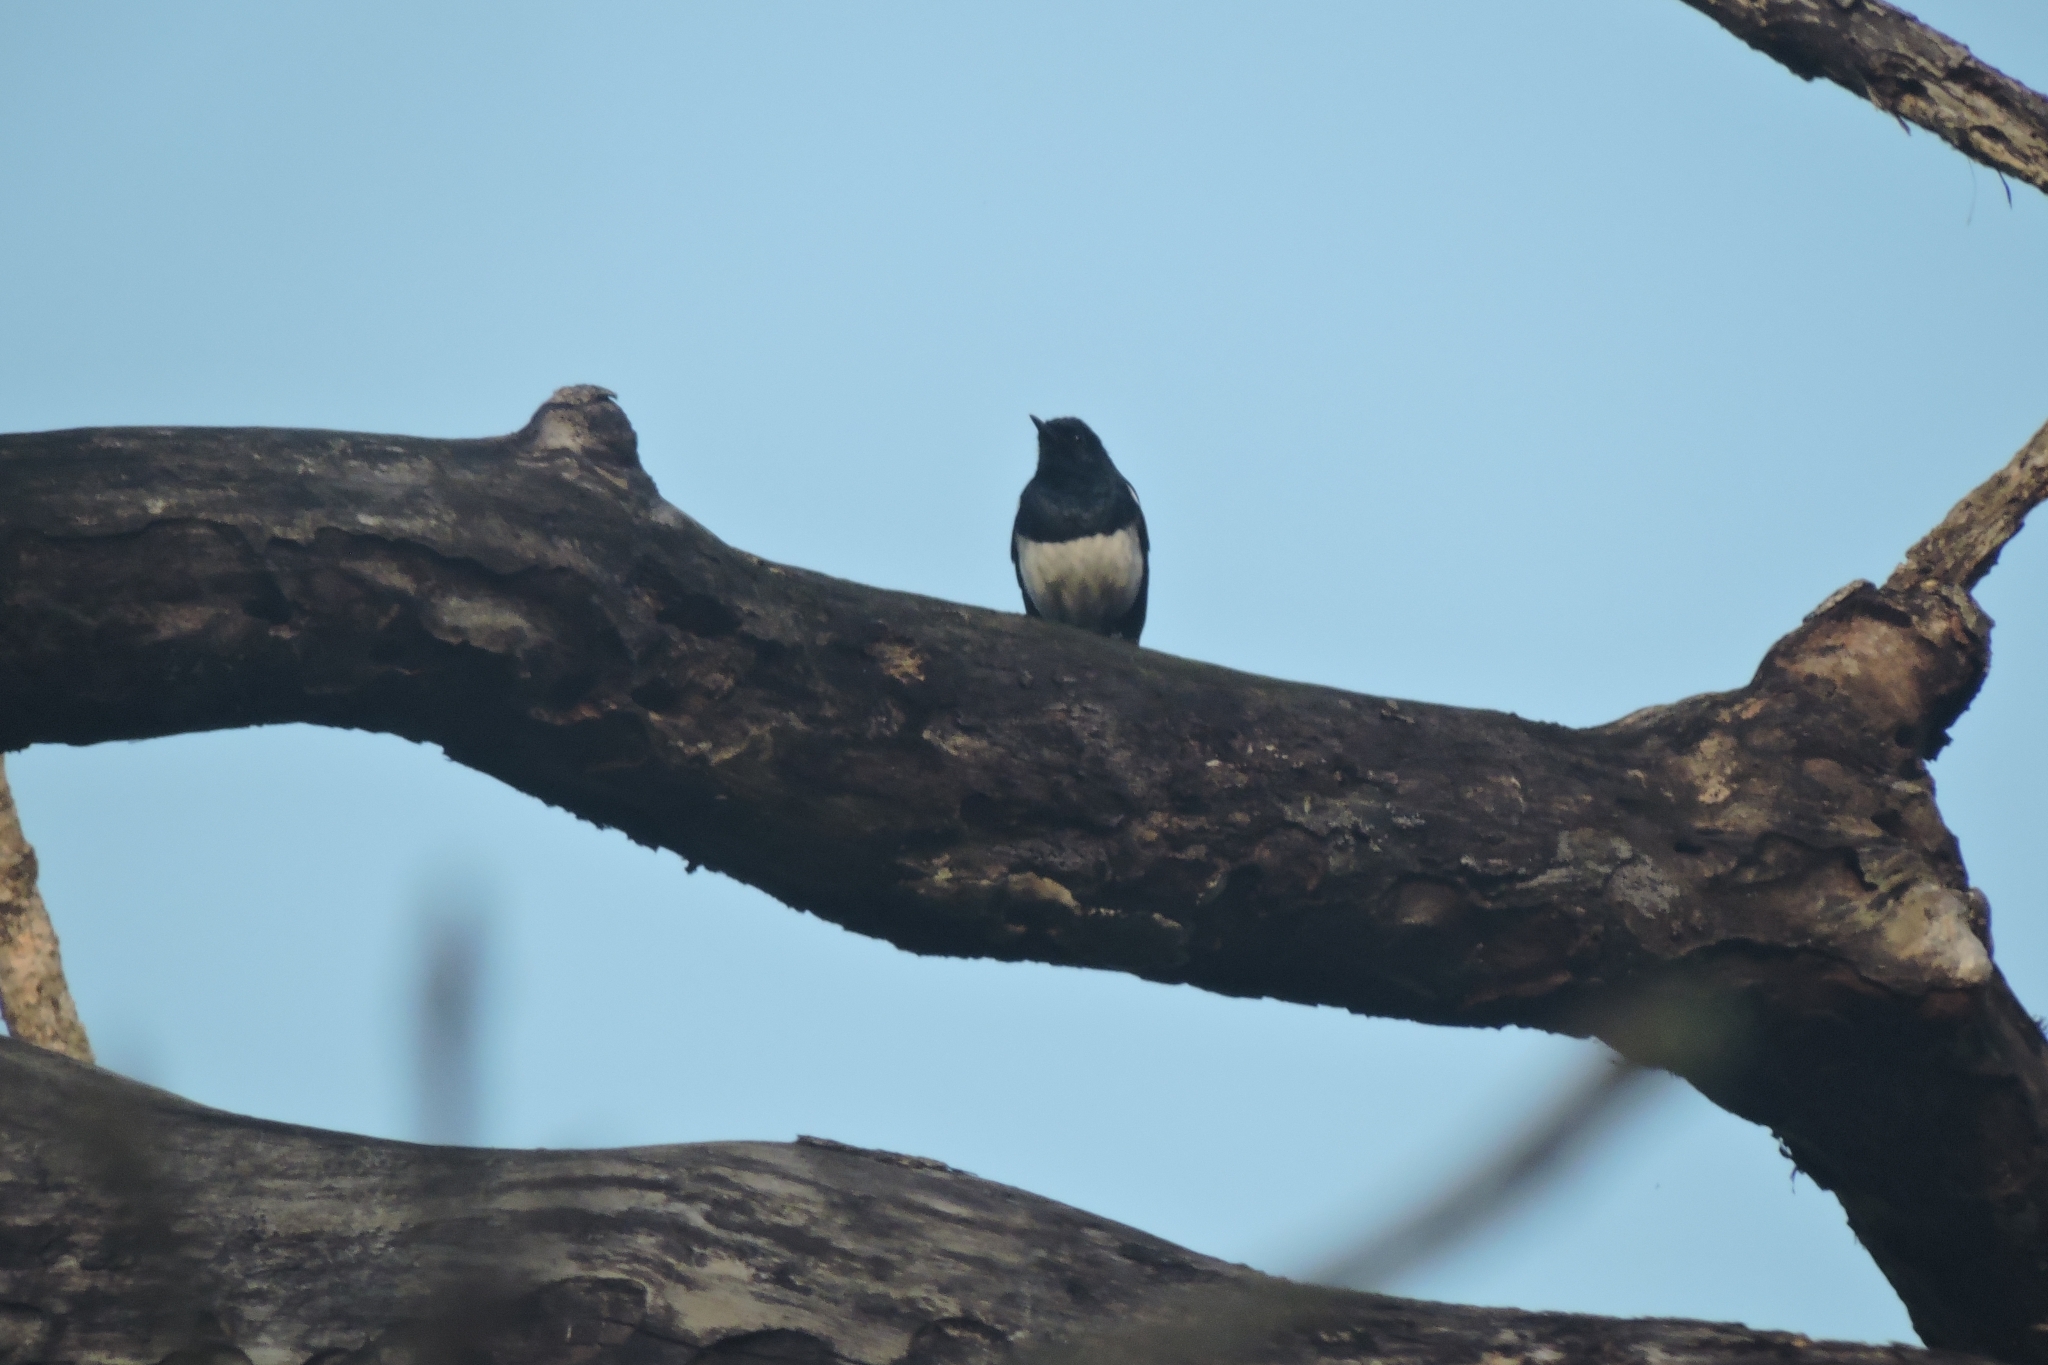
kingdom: Animalia
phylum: Chordata
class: Aves
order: Passeriformes
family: Muscicapidae
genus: Copsychus
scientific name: Copsychus saularis
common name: Oriental magpie-robin
